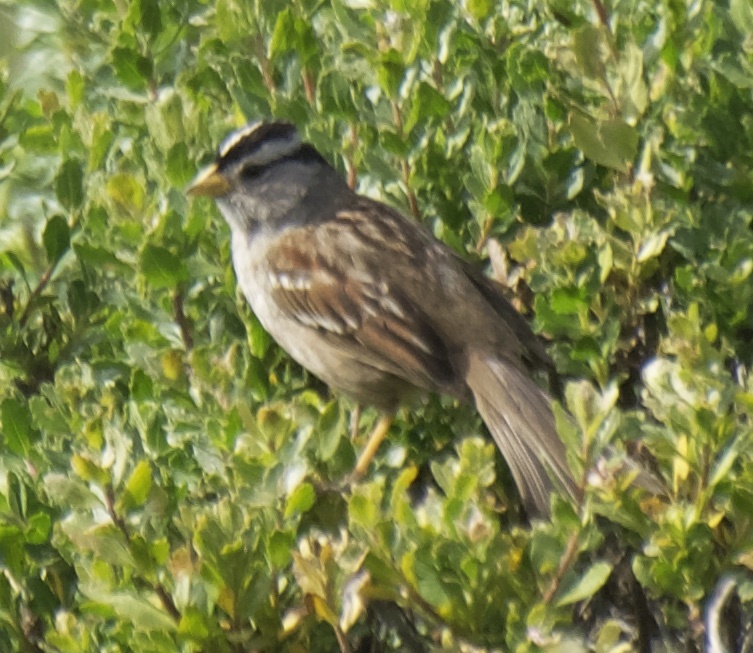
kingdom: Animalia
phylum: Chordata
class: Aves
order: Passeriformes
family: Passerellidae
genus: Zonotrichia
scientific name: Zonotrichia leucophrys
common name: White-crowned sparrow
